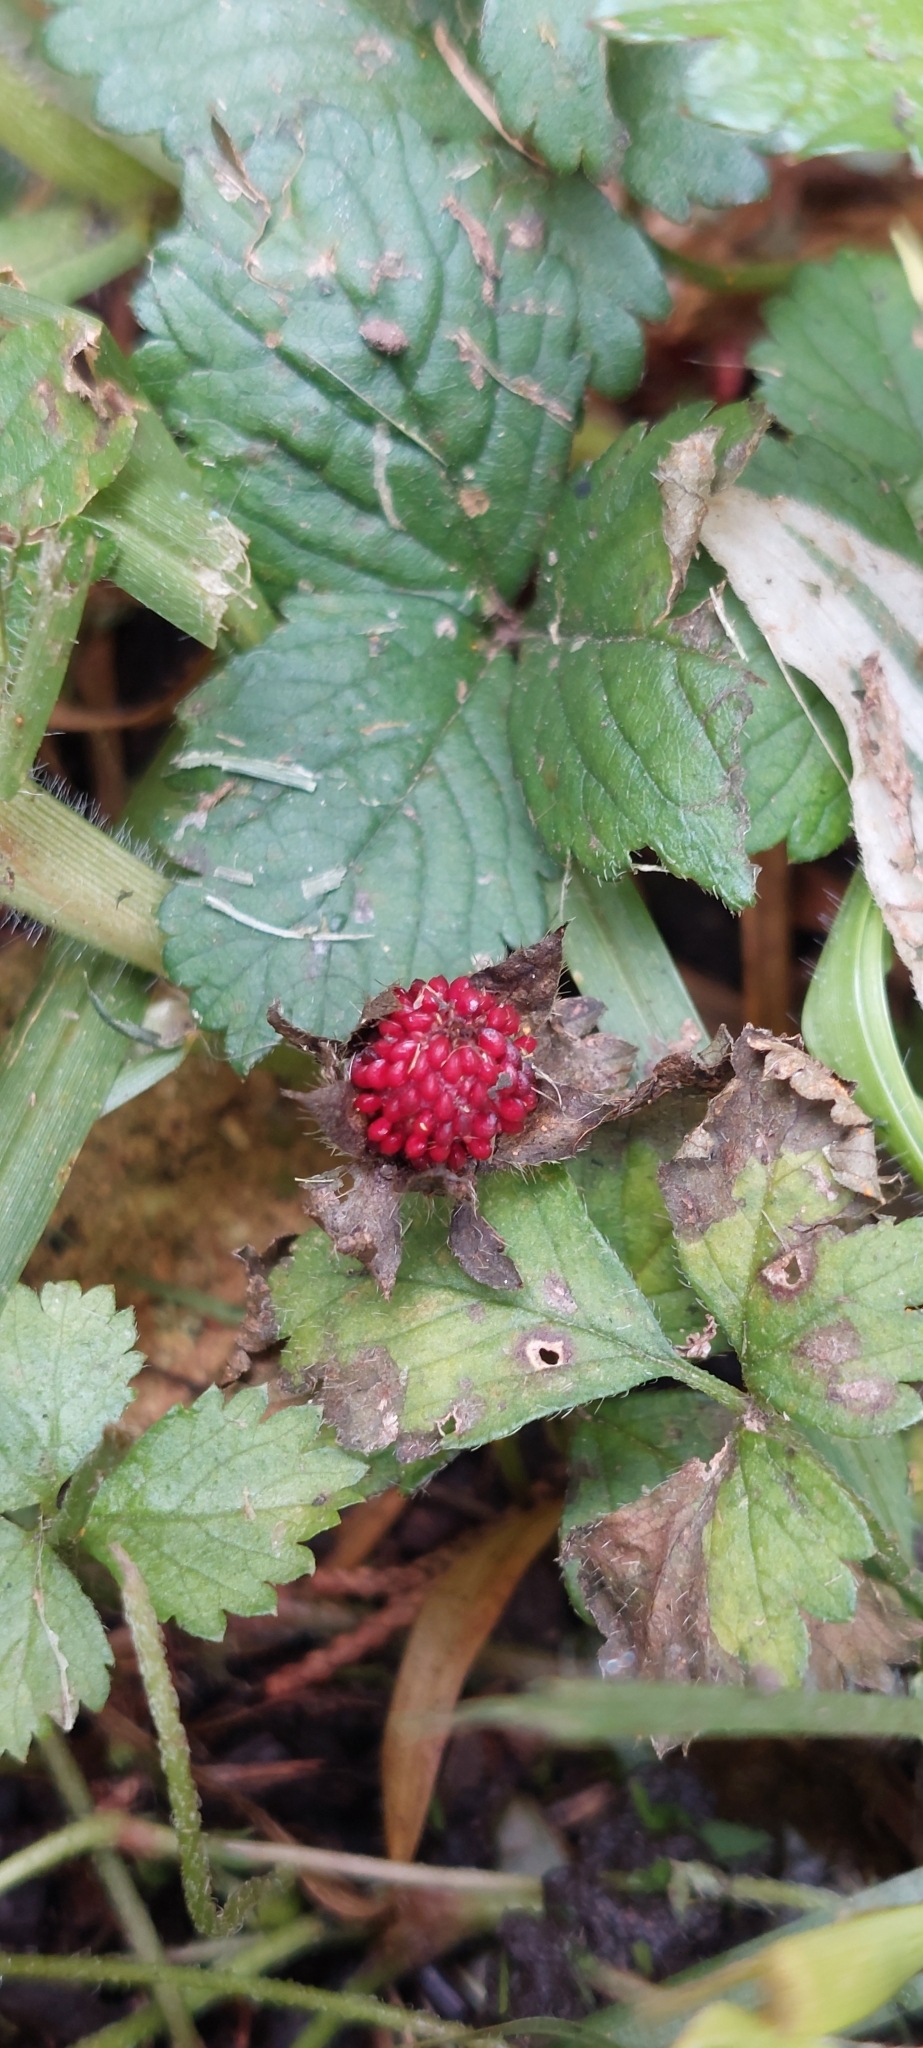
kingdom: Plantae
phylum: Tracheophyta
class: Magnoliopsida
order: Rosales
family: Rosaceae
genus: Potentilla
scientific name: Potentilla indica
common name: Yellow-flowered strawberry
